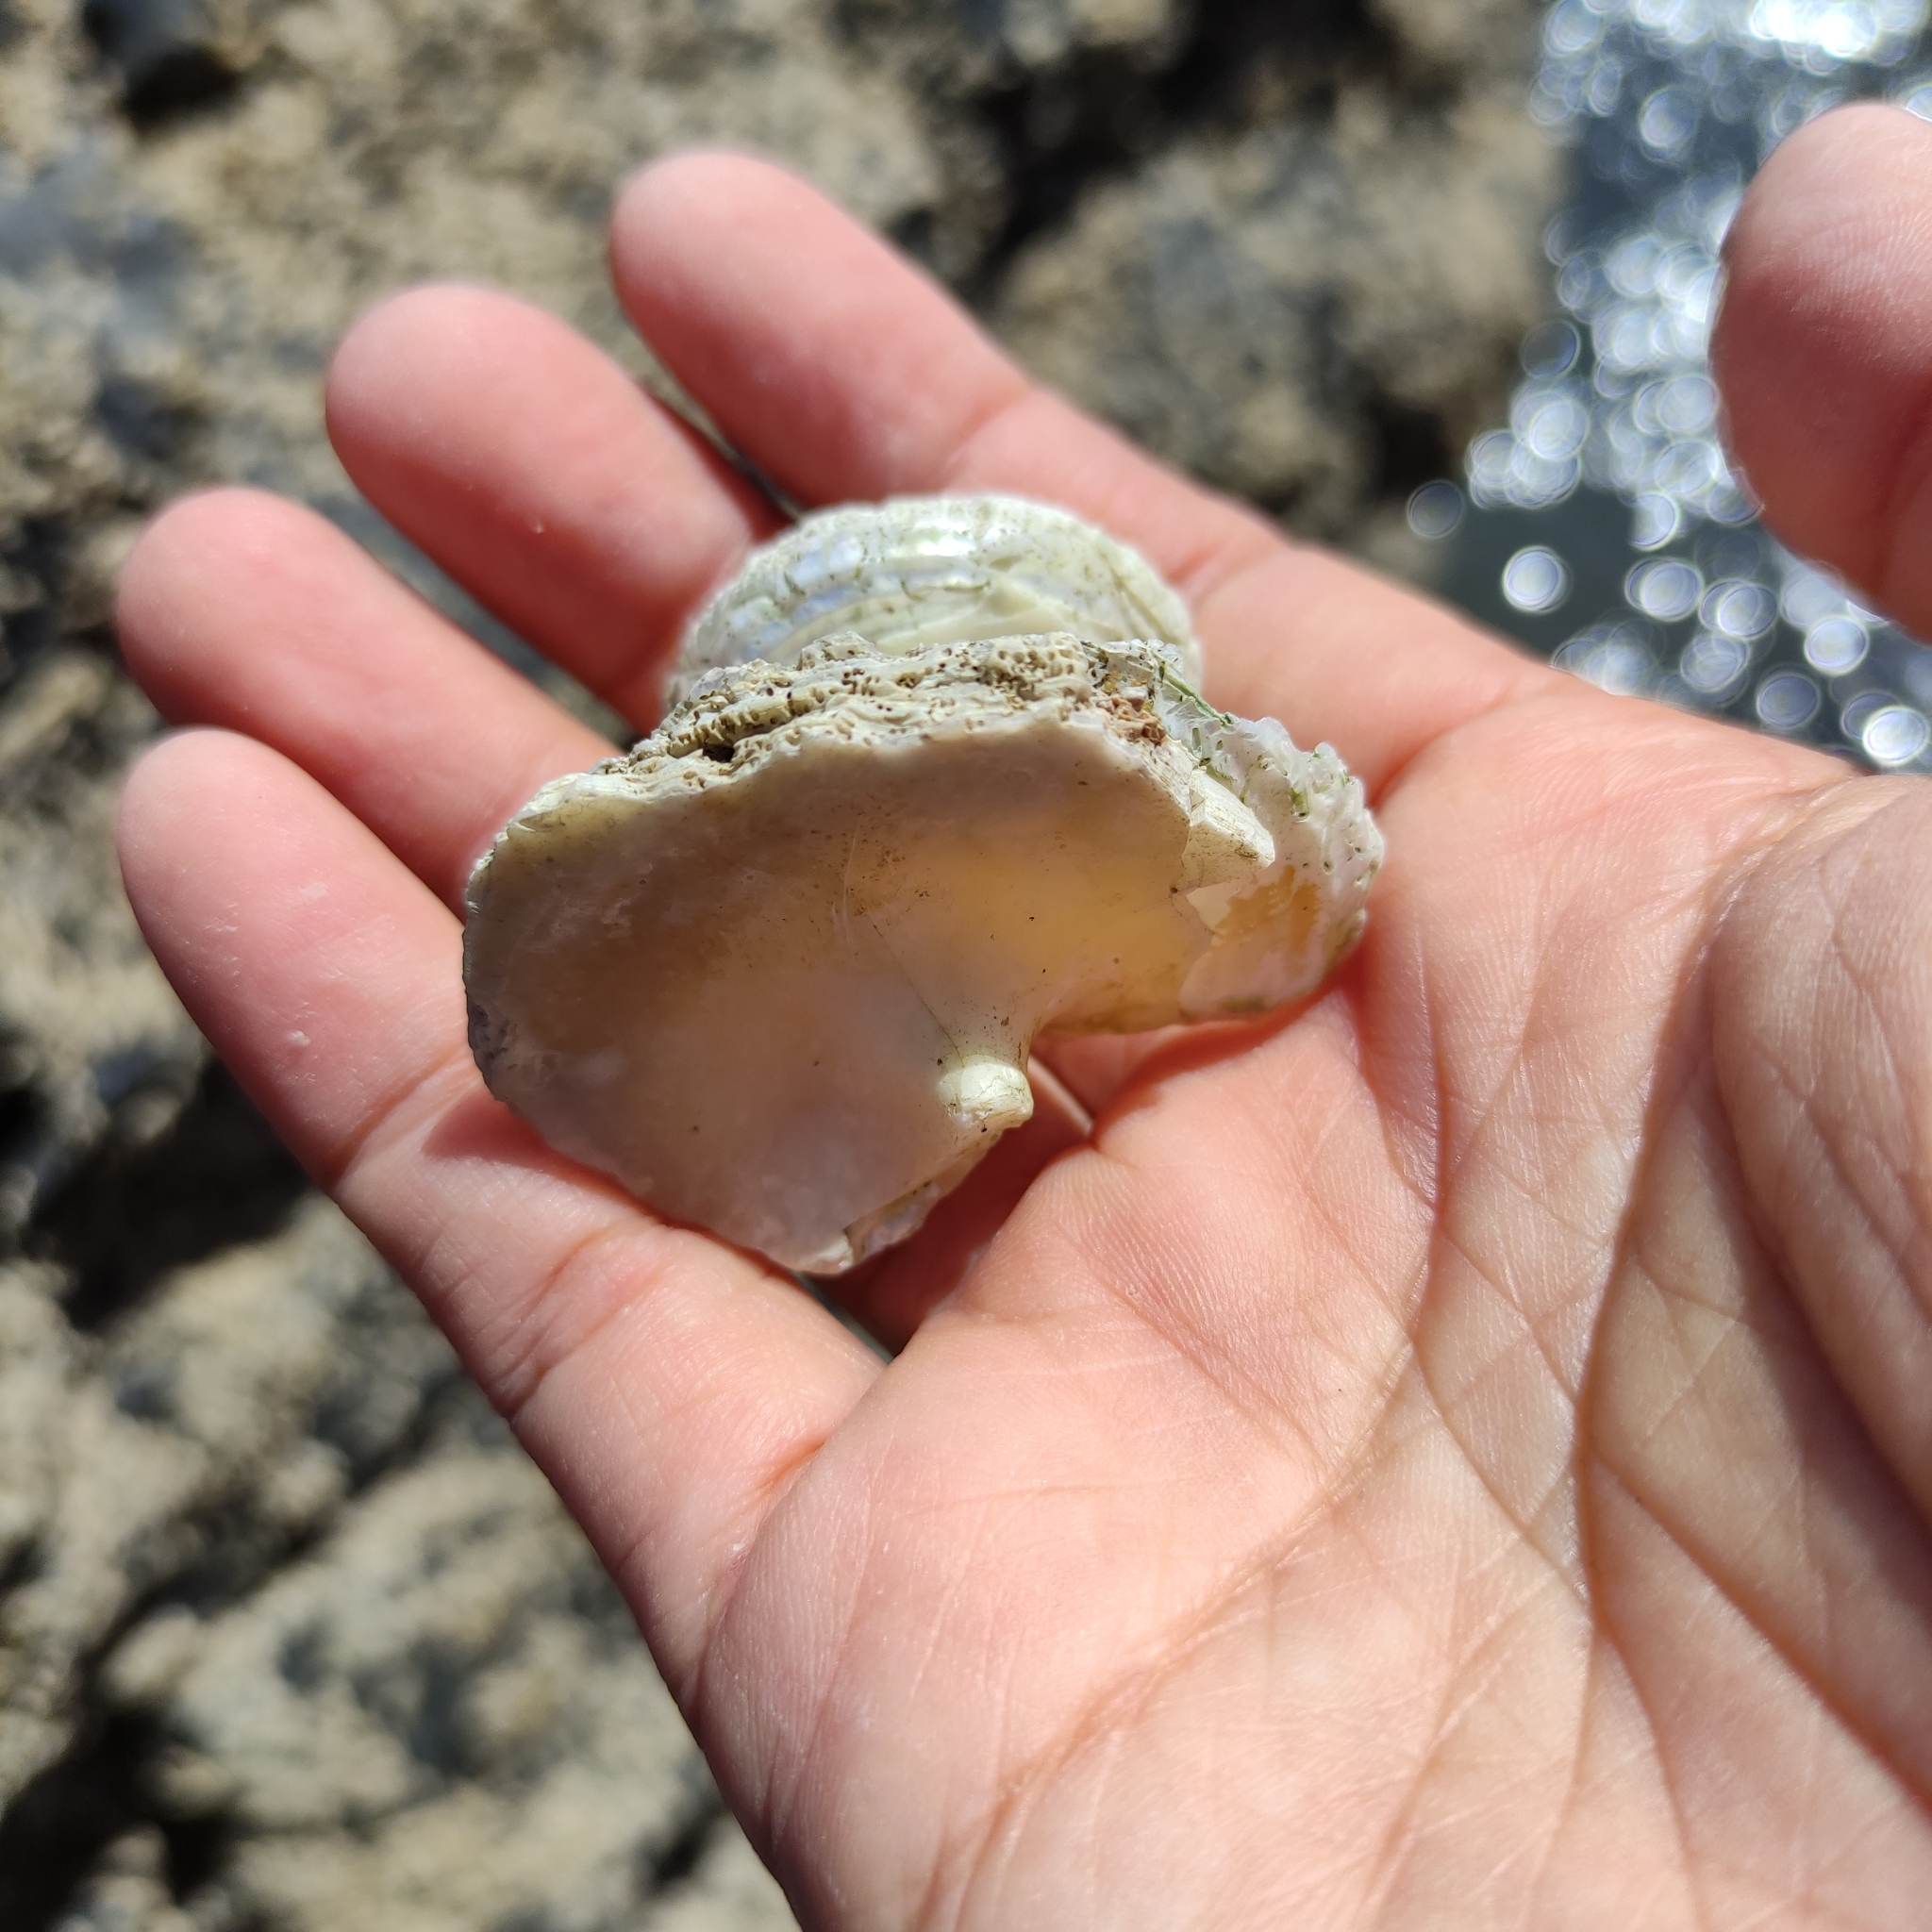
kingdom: Animalia
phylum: Mollusca
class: Gastropoda
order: Trochida
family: Turbinidae
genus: Cookia
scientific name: Cookia sulcata
